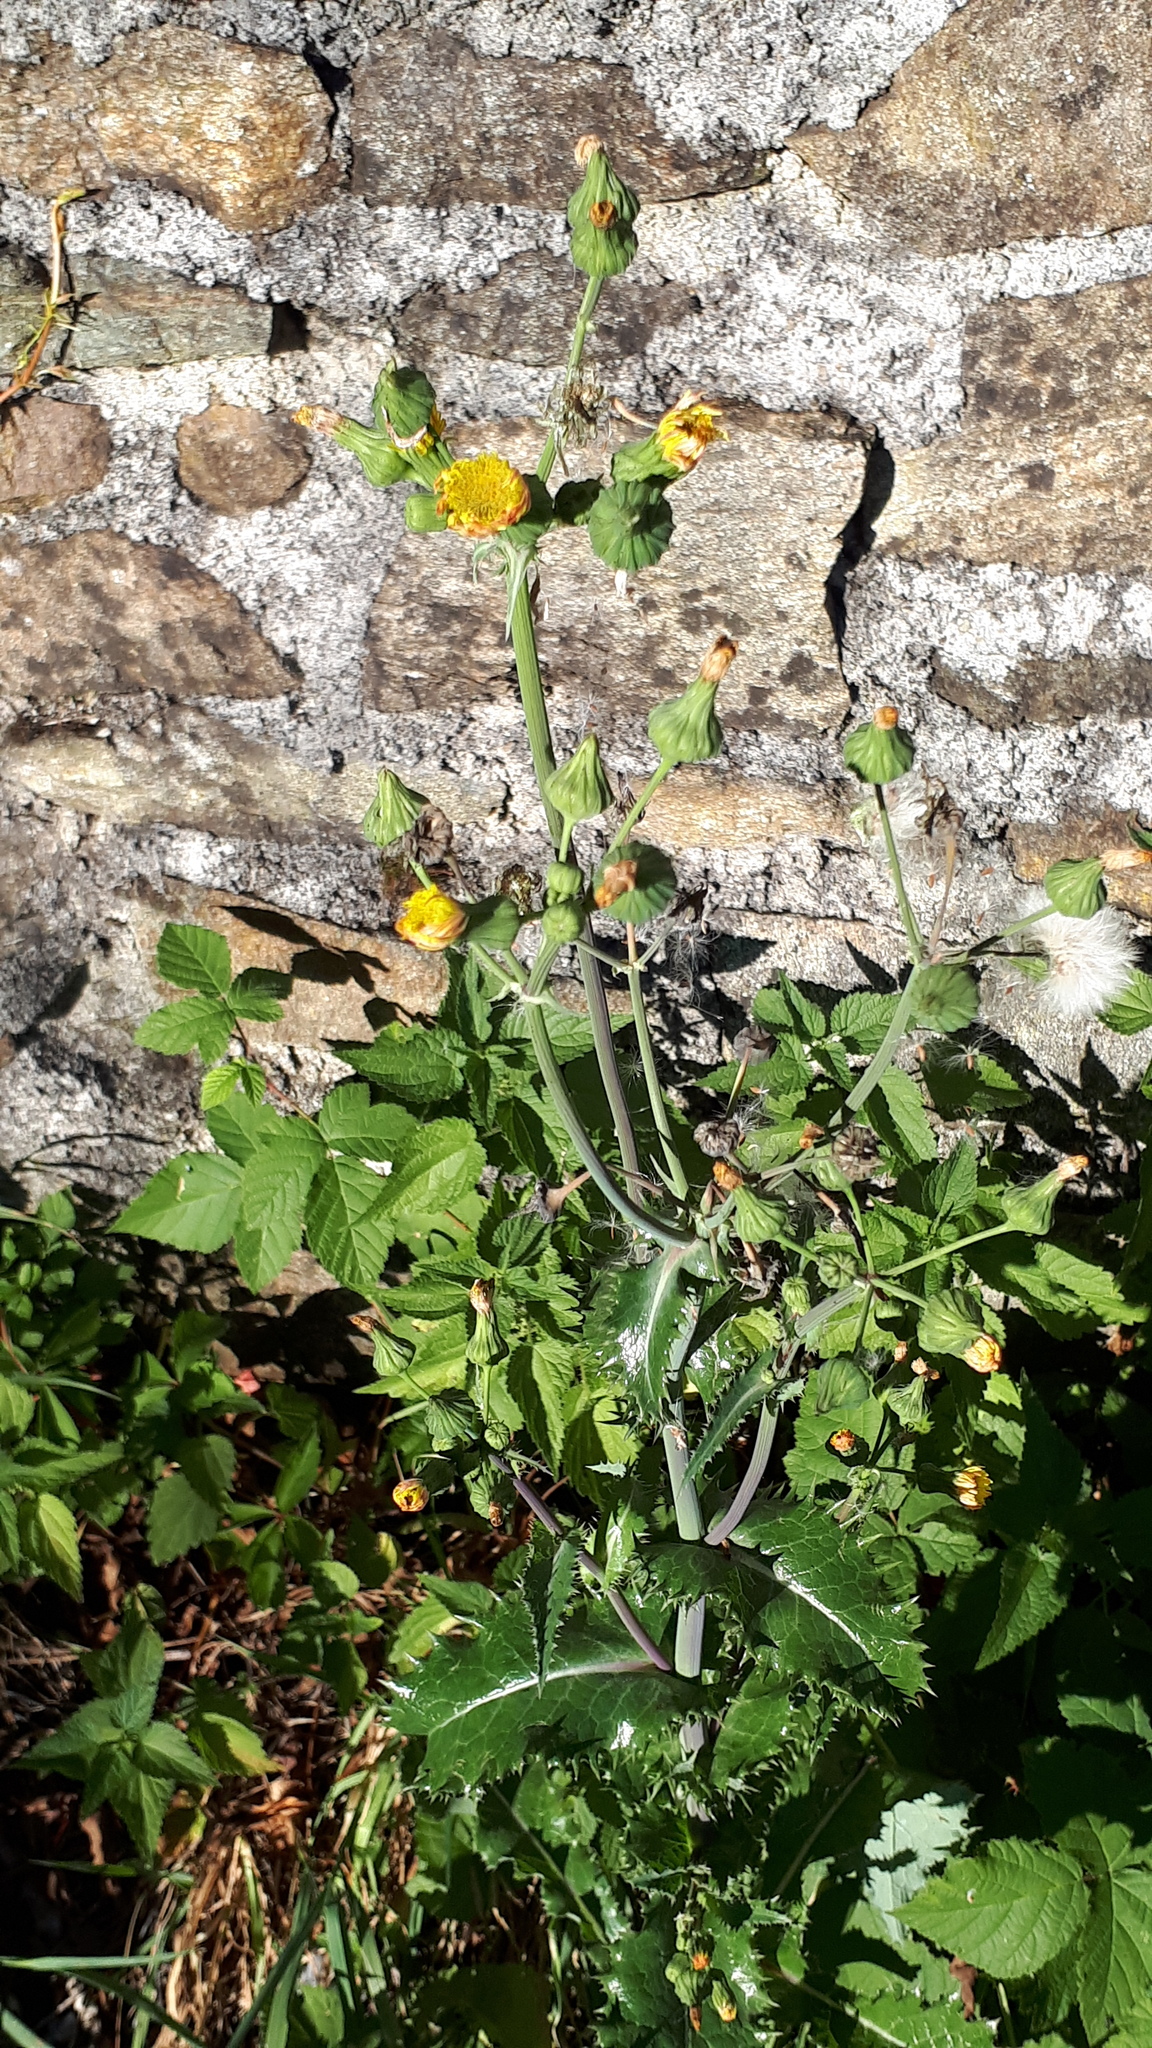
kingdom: Plantae
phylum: Tracheophyta
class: Magnoliopsida
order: Asterales
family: Asteraceae
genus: Sonchus
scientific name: Sonchus asper
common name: Prickly sow-thistle
